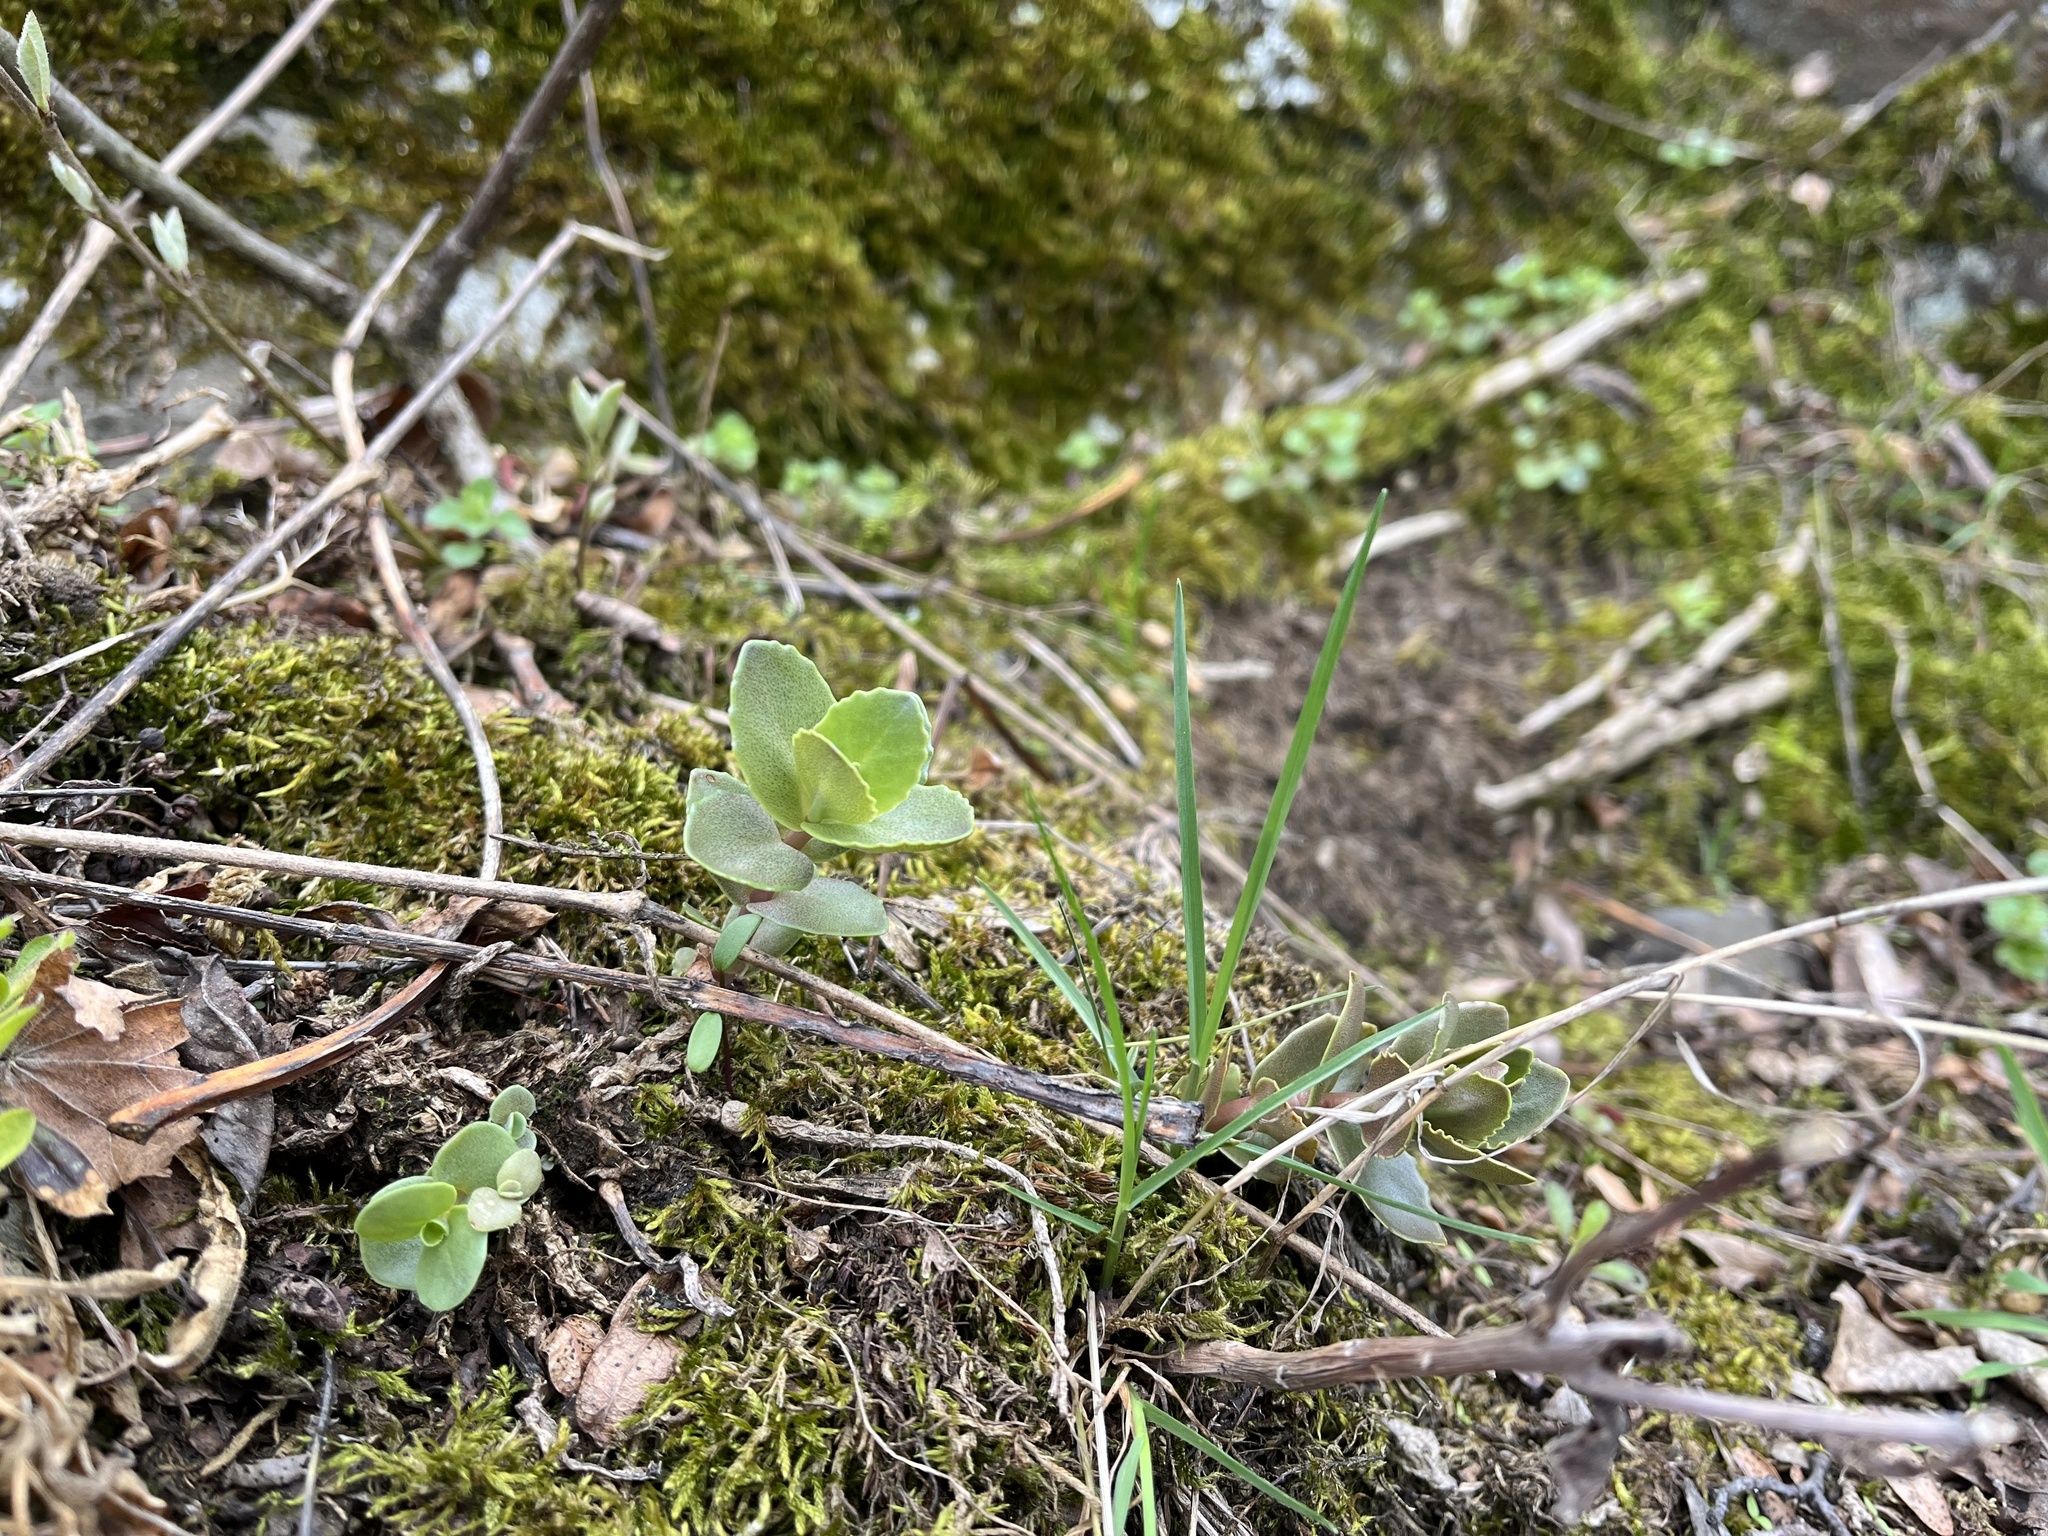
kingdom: Plantae
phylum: Tracheophyta
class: Magnoliopsida
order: Saxifragales
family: Crassulaceae
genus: Hylotelephium
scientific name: Hylotelephium maximum
